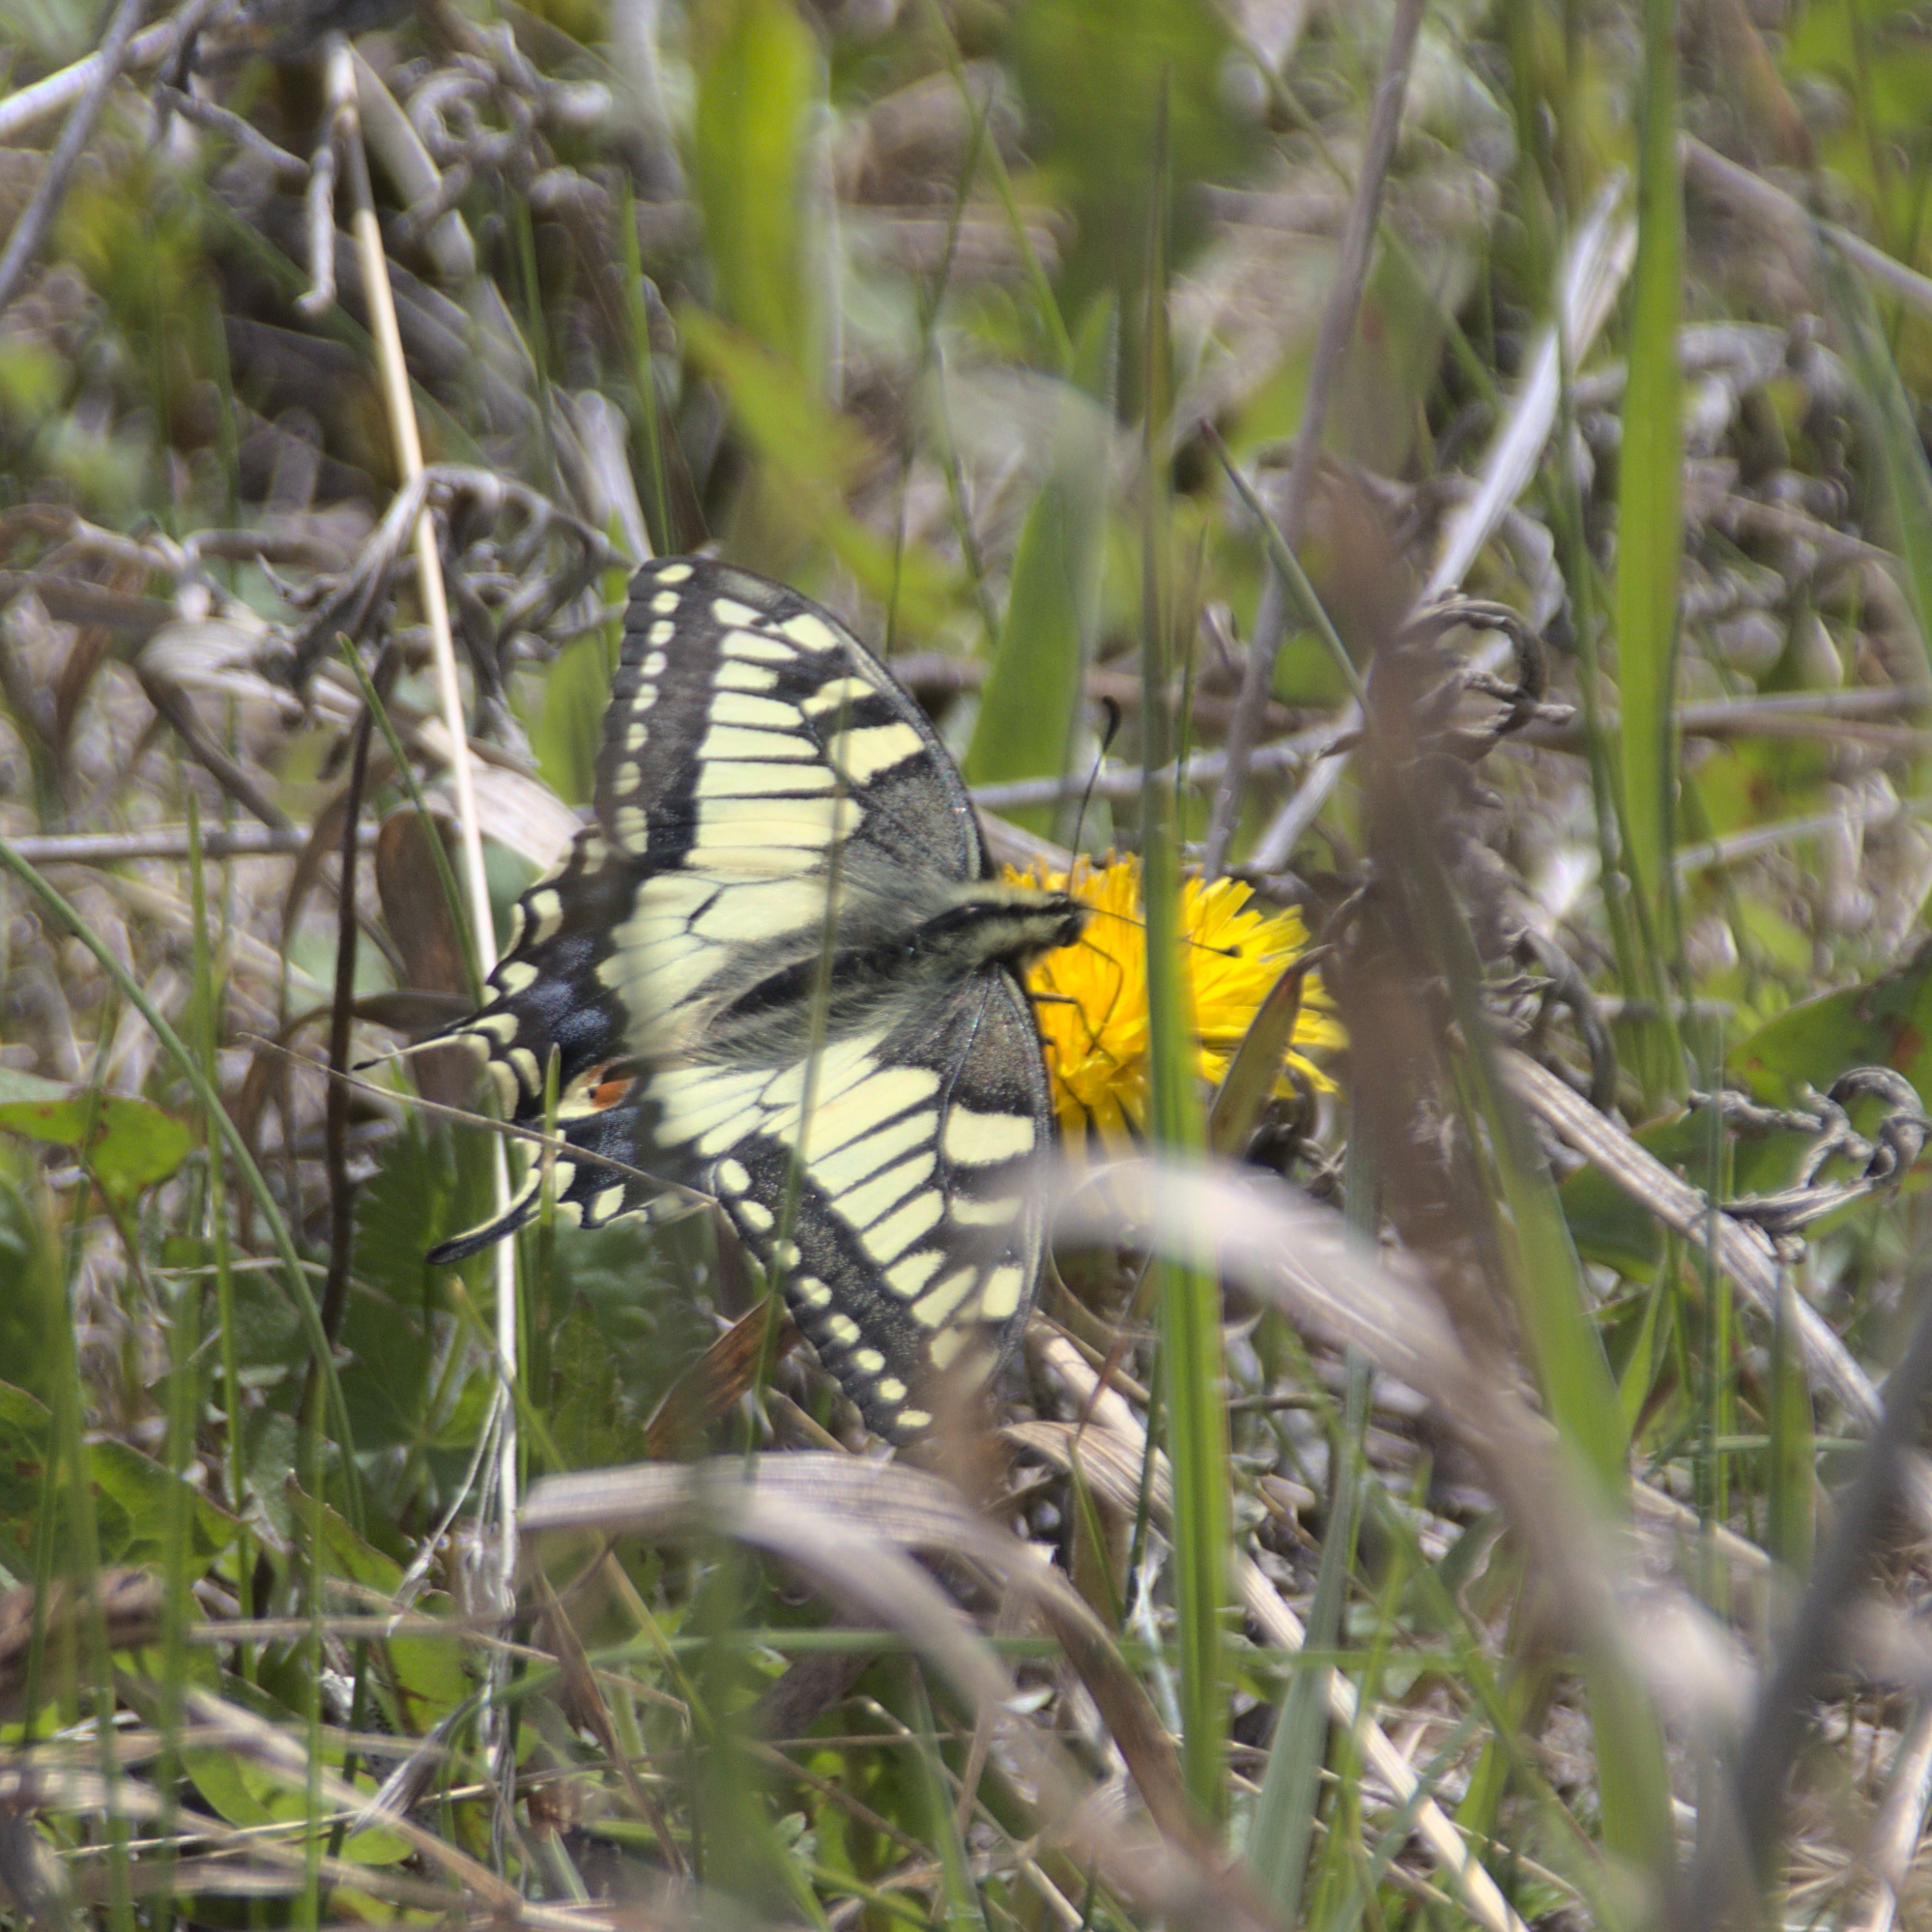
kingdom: Animalia
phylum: Arthropoda
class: Insecta
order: Lepidoptera
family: Papilionidae
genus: Papilio
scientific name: Papilio machaon
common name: Swallowtail
